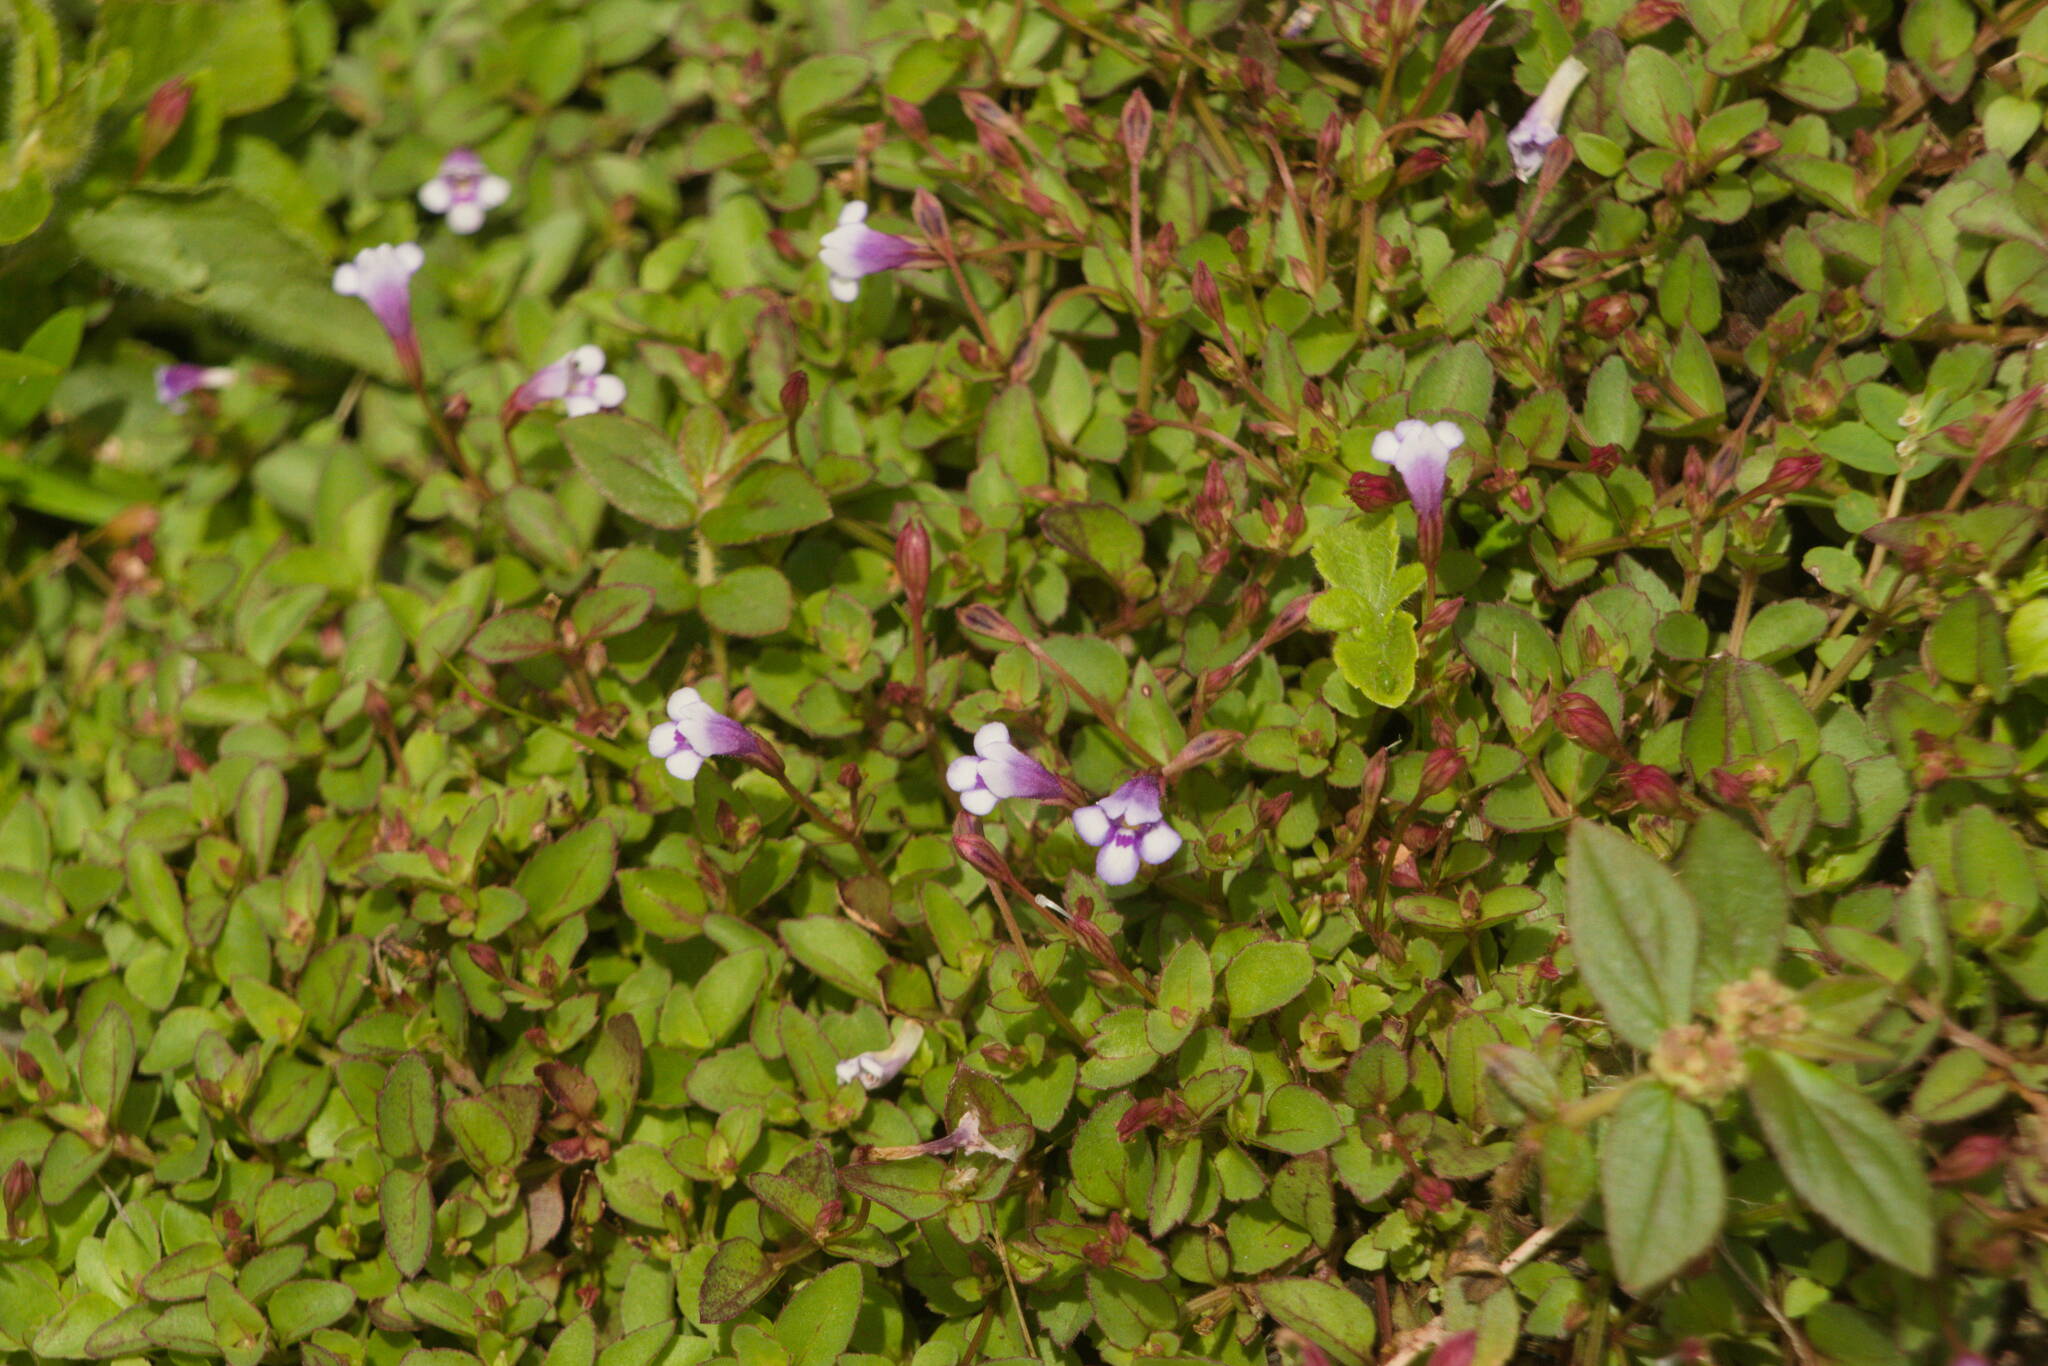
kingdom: Plantae
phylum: Tracheophyta
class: Magnoliopsida
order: Lamiales
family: Linderniaceae
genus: Torenia
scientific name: Torenia crustacea
